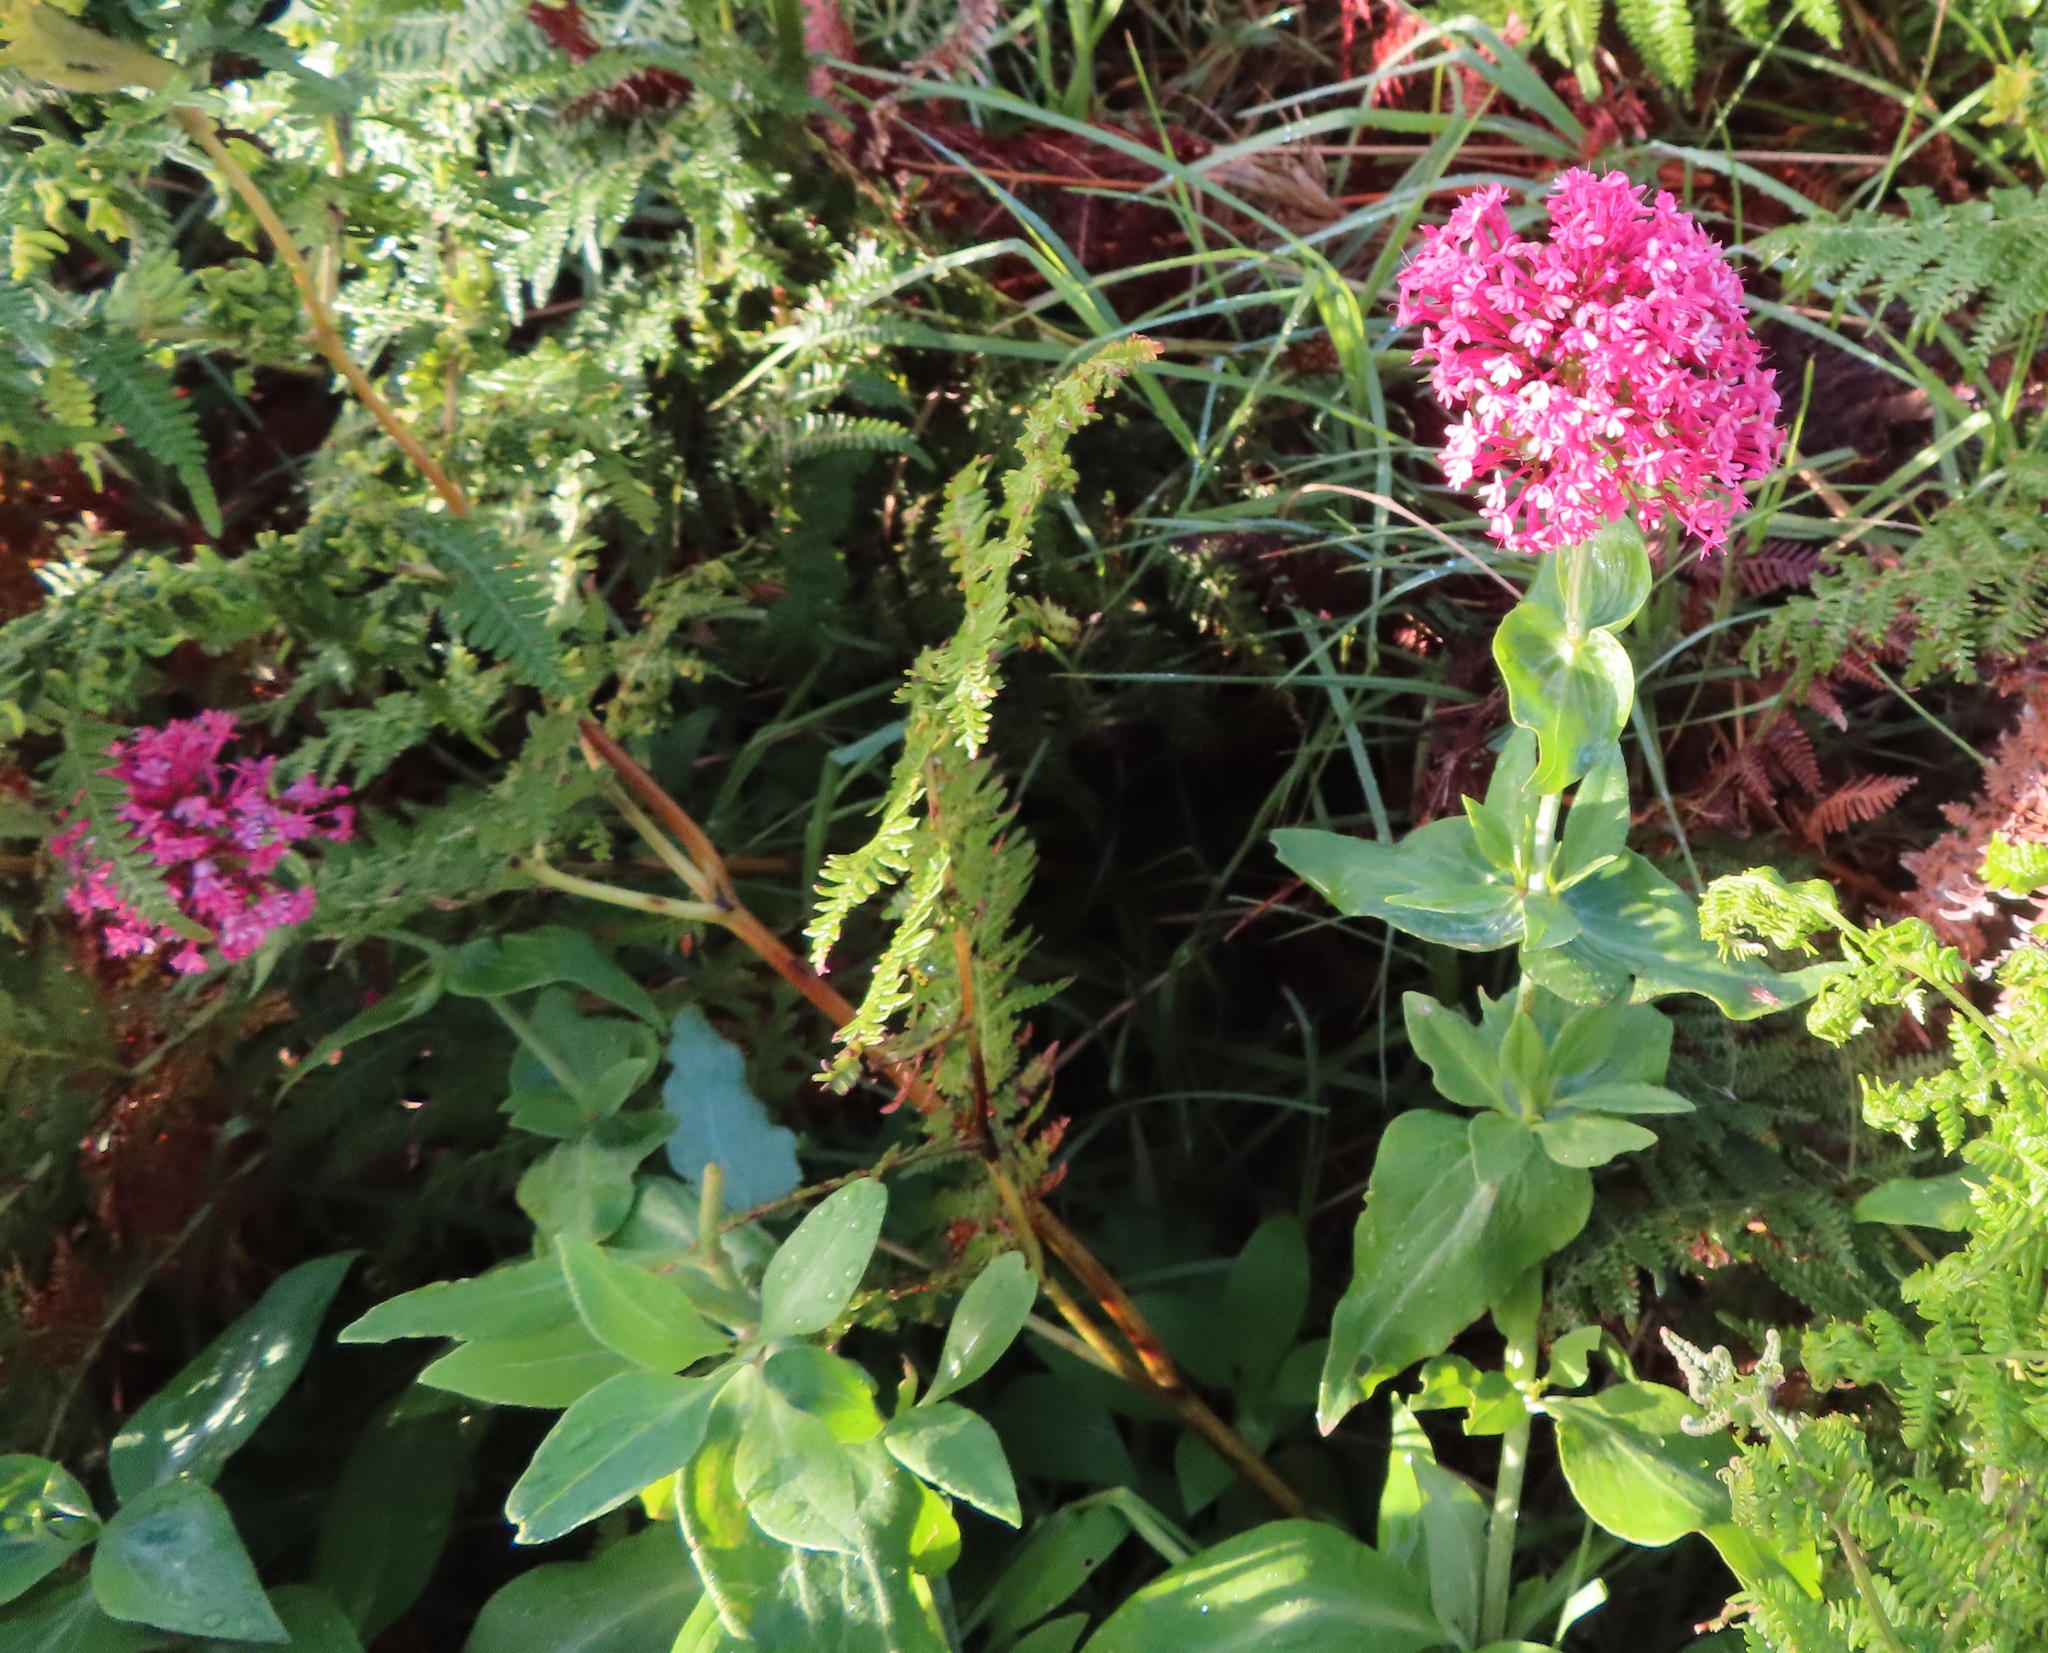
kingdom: Plantae
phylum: Tracheophyta
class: Magnoliopsida
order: Dipsacales
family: Caprifoliaceae
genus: Centranthus
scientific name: Centranthus ruber
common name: Red valerian
